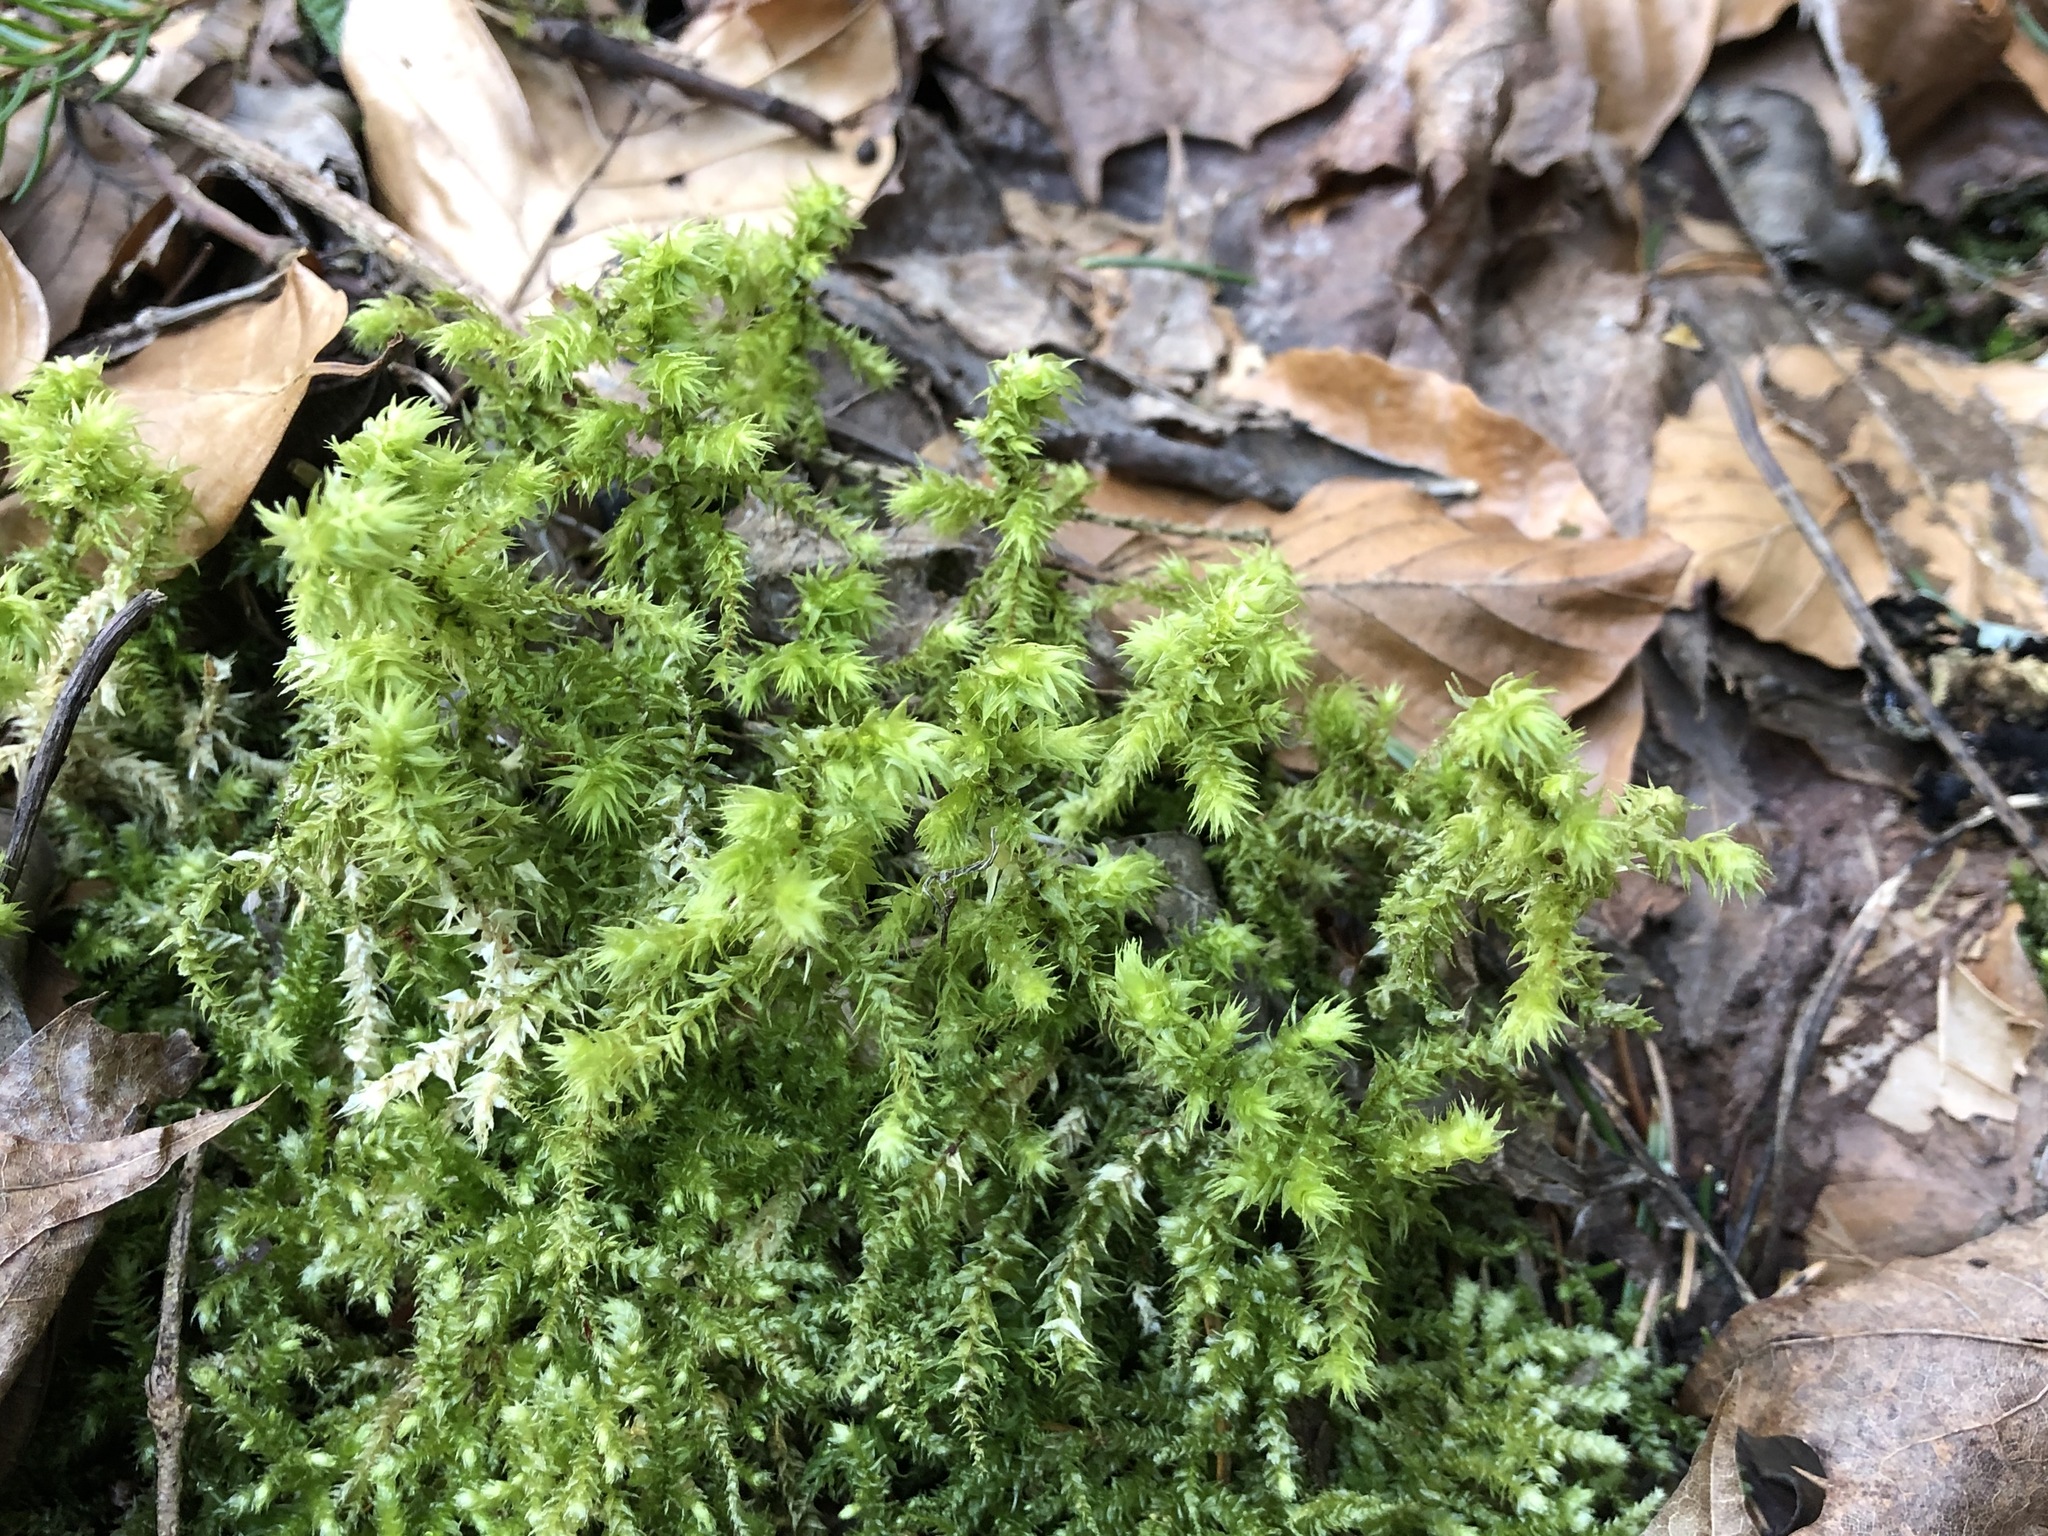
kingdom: Plantae
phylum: Bryophyta
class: Bryopsida
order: Hypnales
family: Hylocomiaceae
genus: Hylocomiadelphus
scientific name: Hylocomiadelphus triquetrus
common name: Rough goose neck moss
